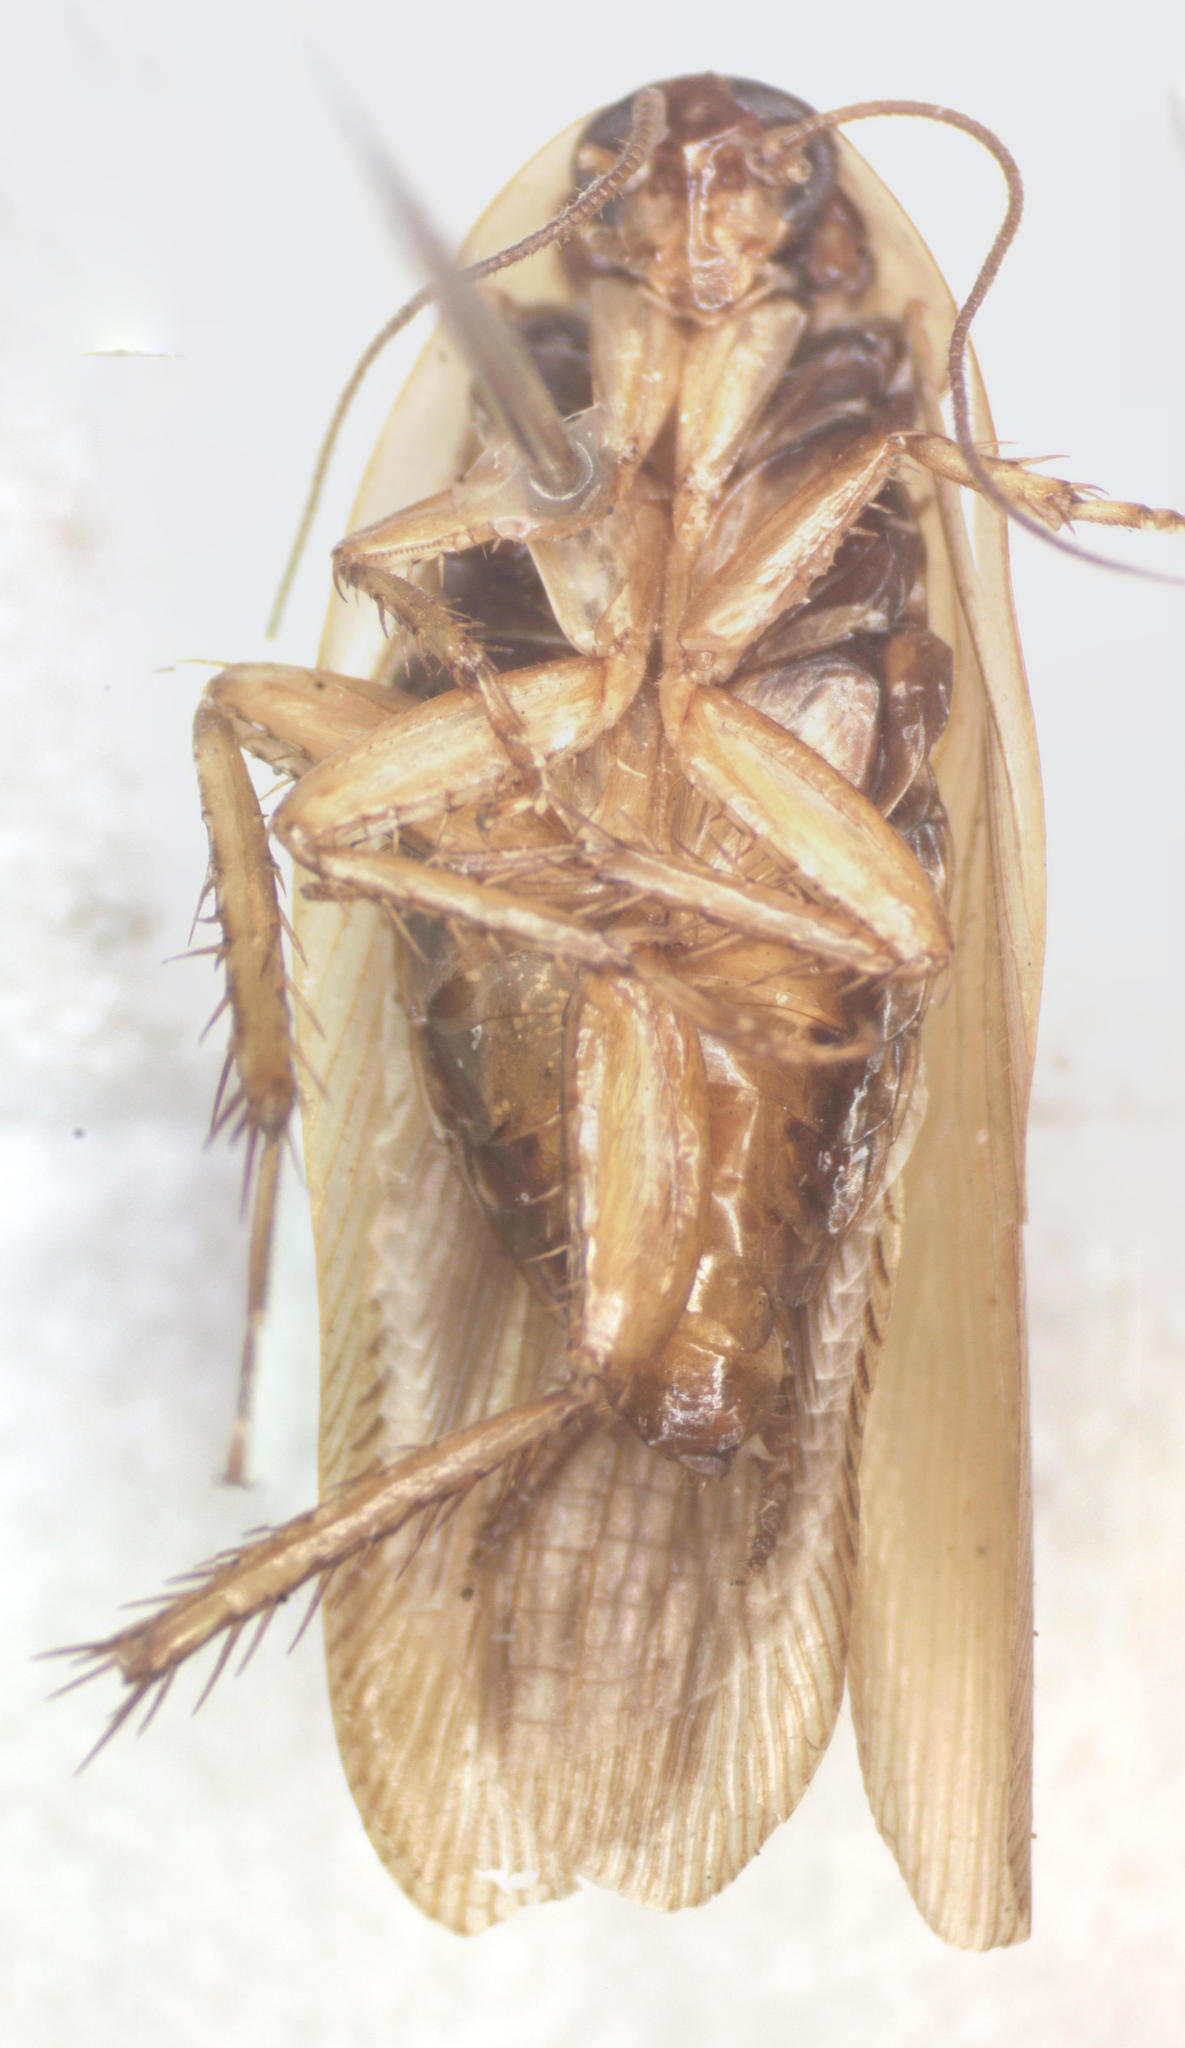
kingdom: Animalia
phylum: Arthropoda
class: Insecta
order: Blattodea
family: Ectobiidae
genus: Latiblattella
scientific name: Latiblattella angustifrons
